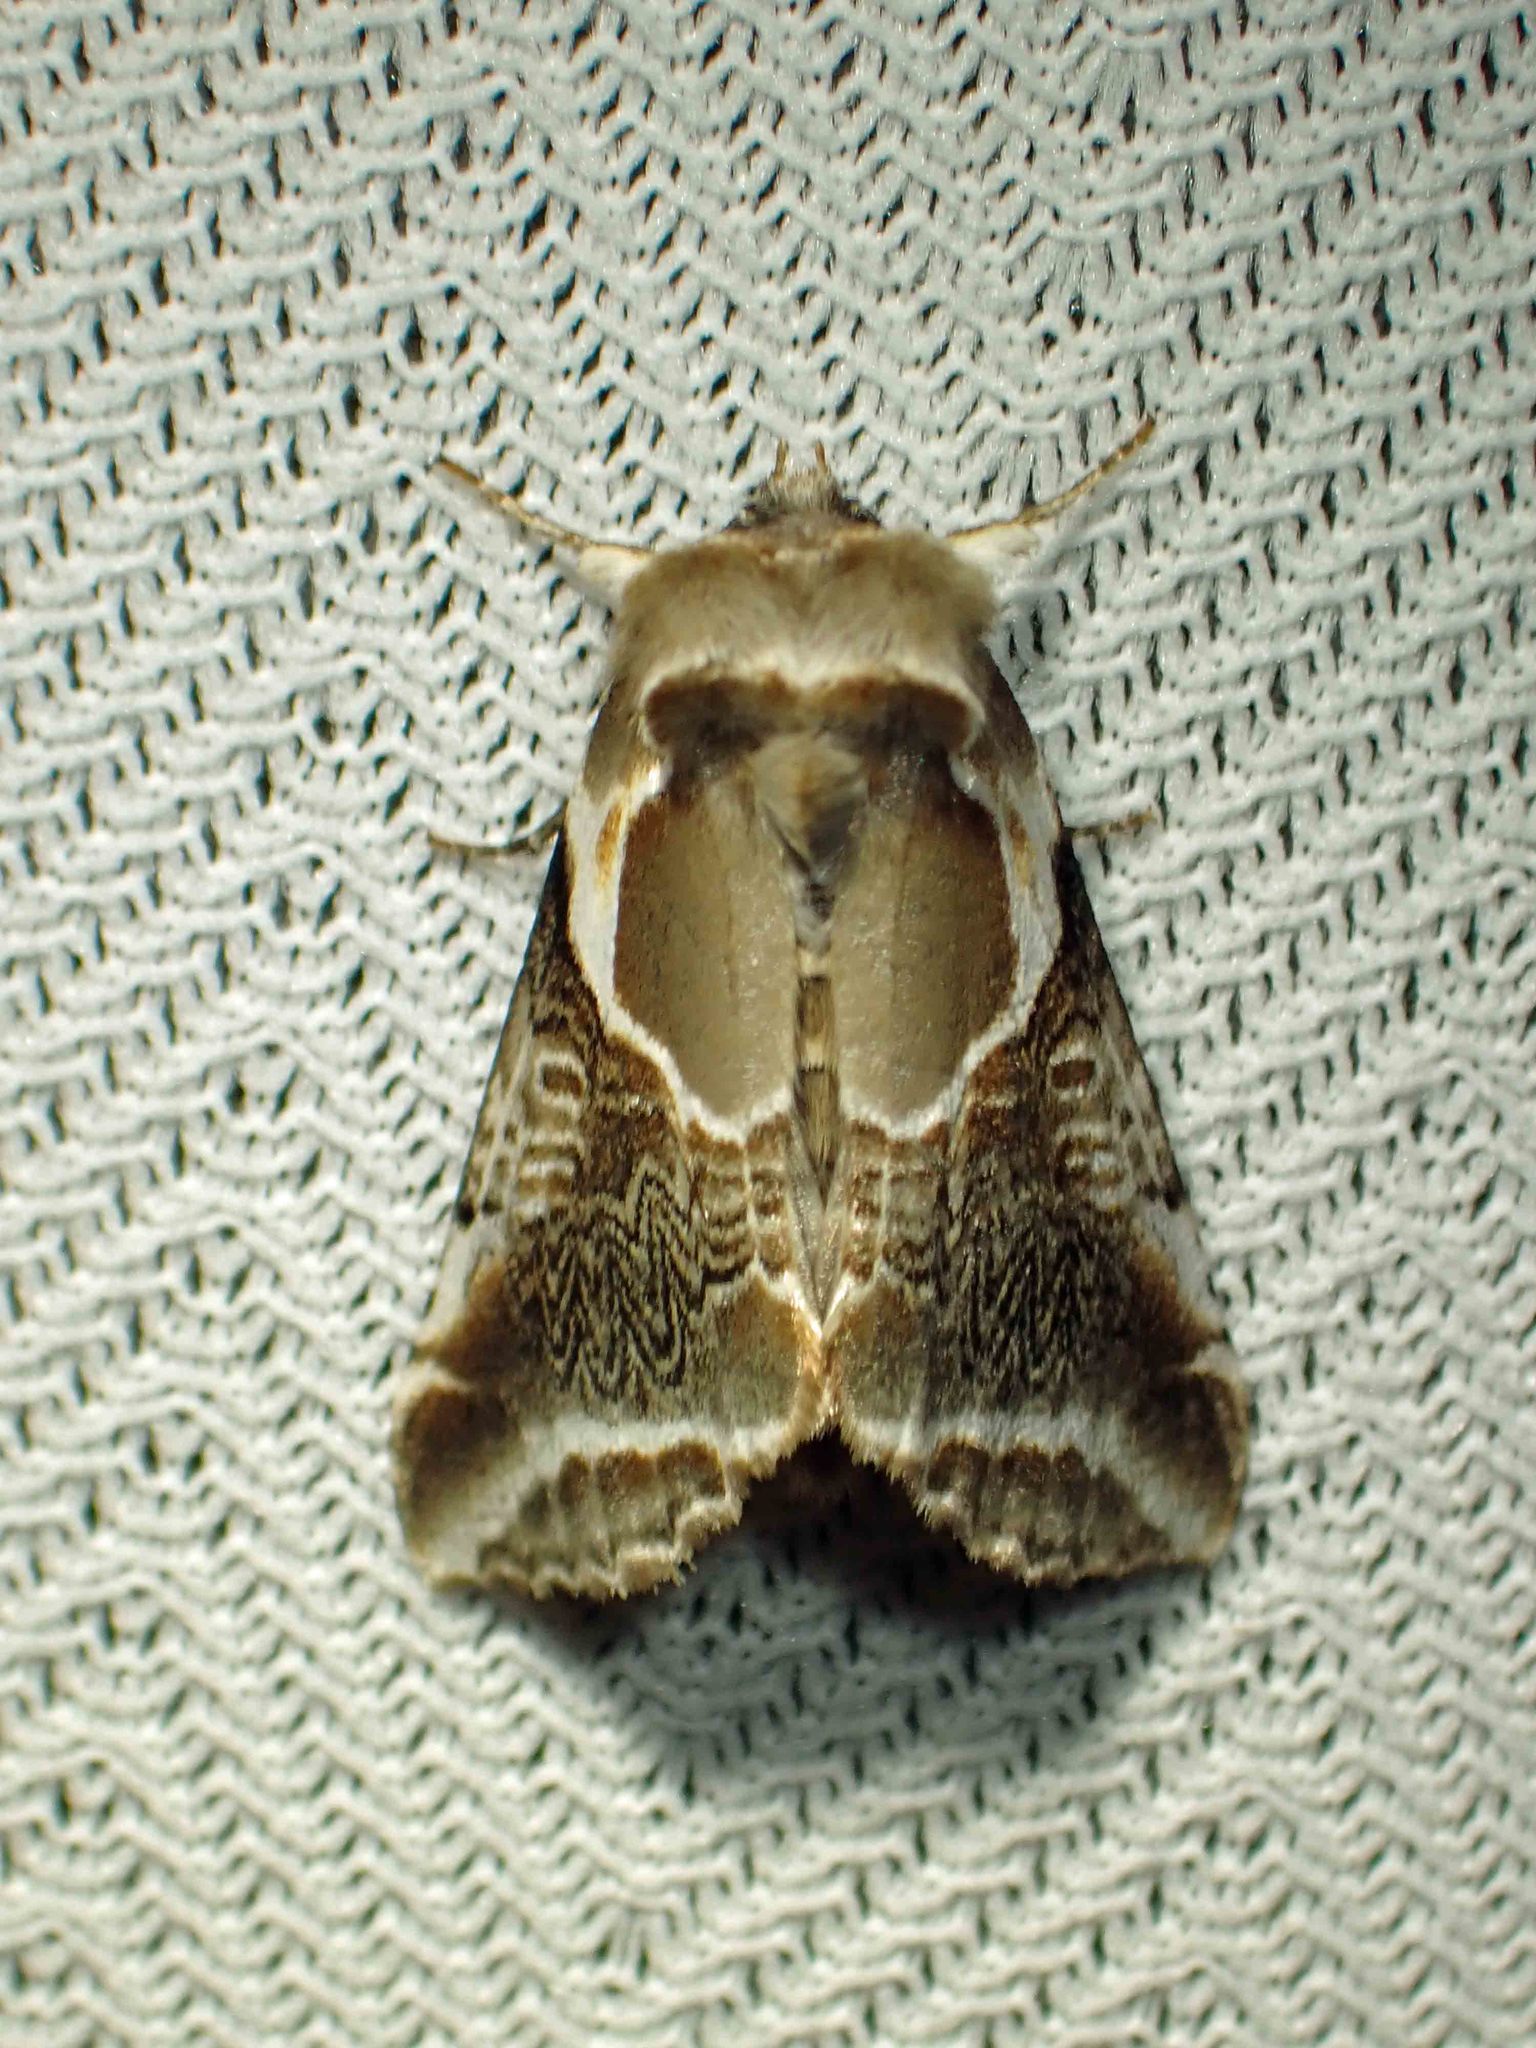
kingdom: Animalia
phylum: Arthropoda
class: Insecta
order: Lepidoptera
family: Drepanidae
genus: Habrosyne
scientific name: Habrosyne scripta
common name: Lettered habrosyne moth
